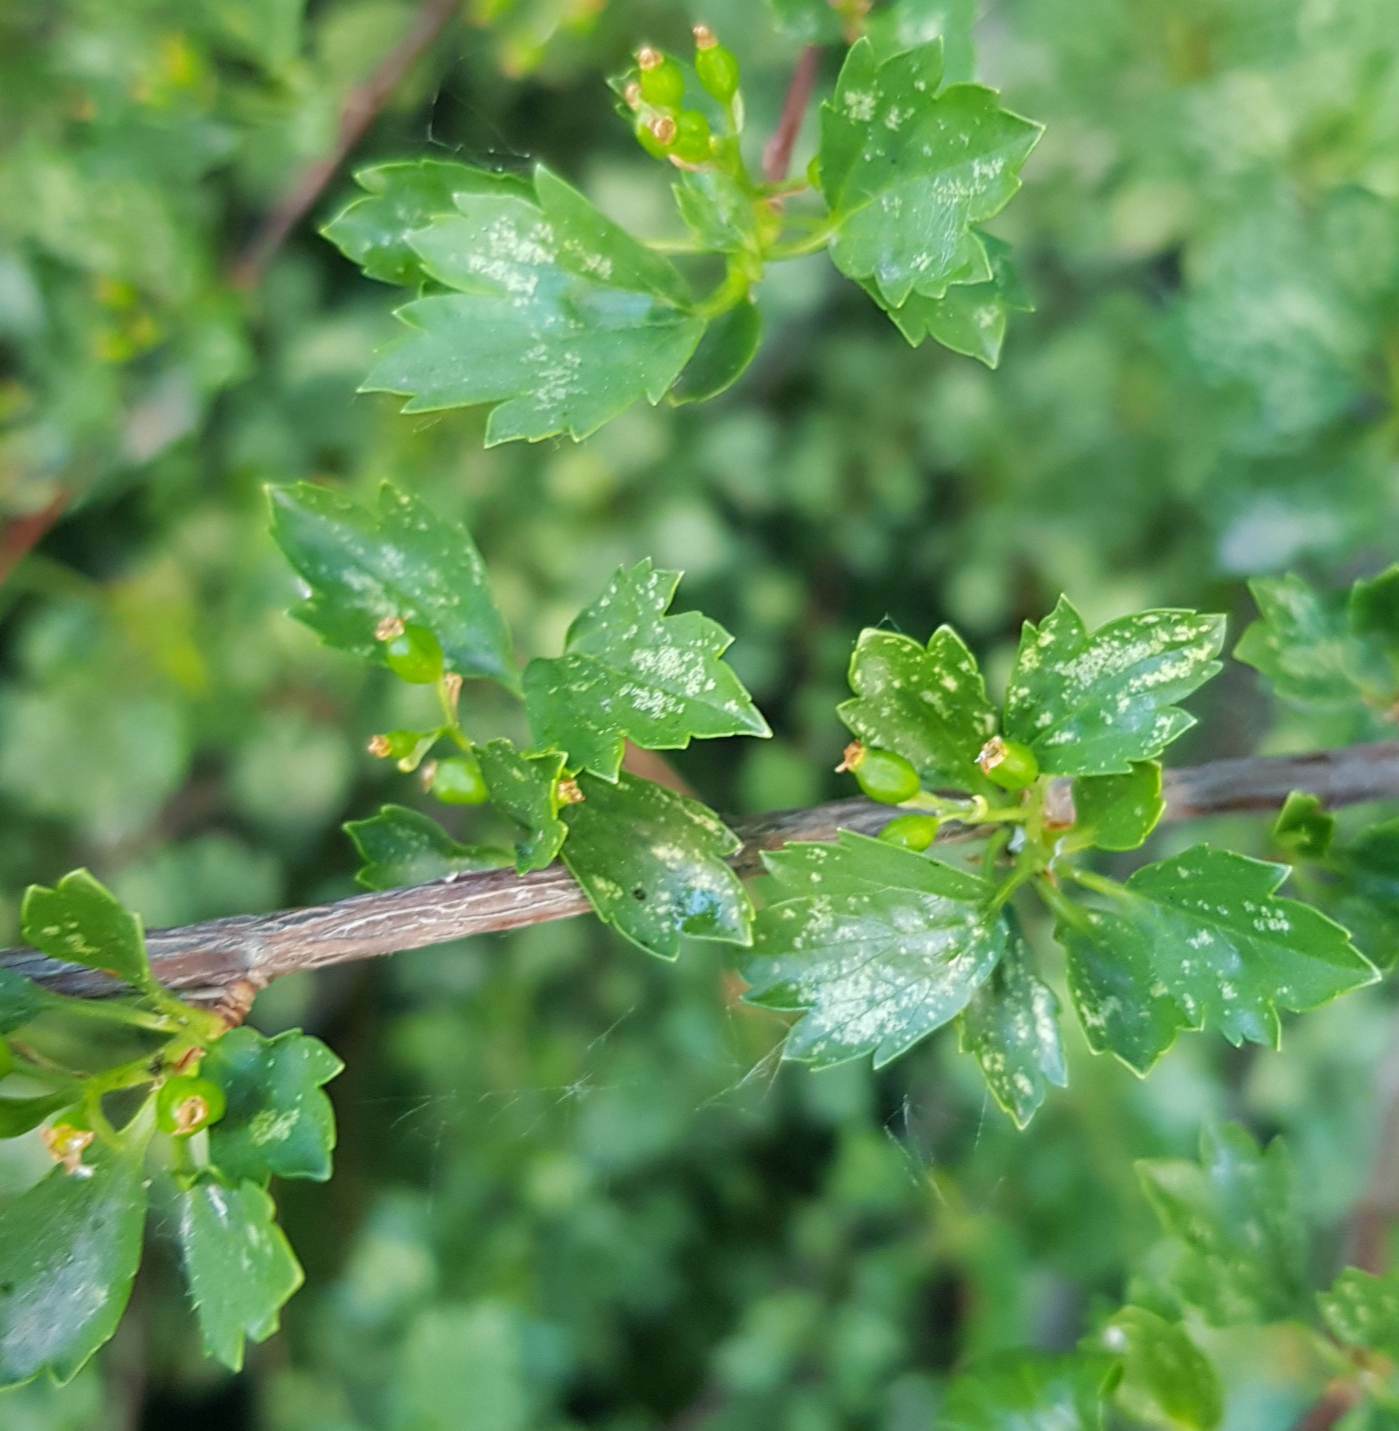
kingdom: Plantae
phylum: Tracheophyta
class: Magnoliopsida
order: Saxifragales
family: Grossulariaceae
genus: Ribes
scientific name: Ribes diacanthum
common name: Siberian currant
